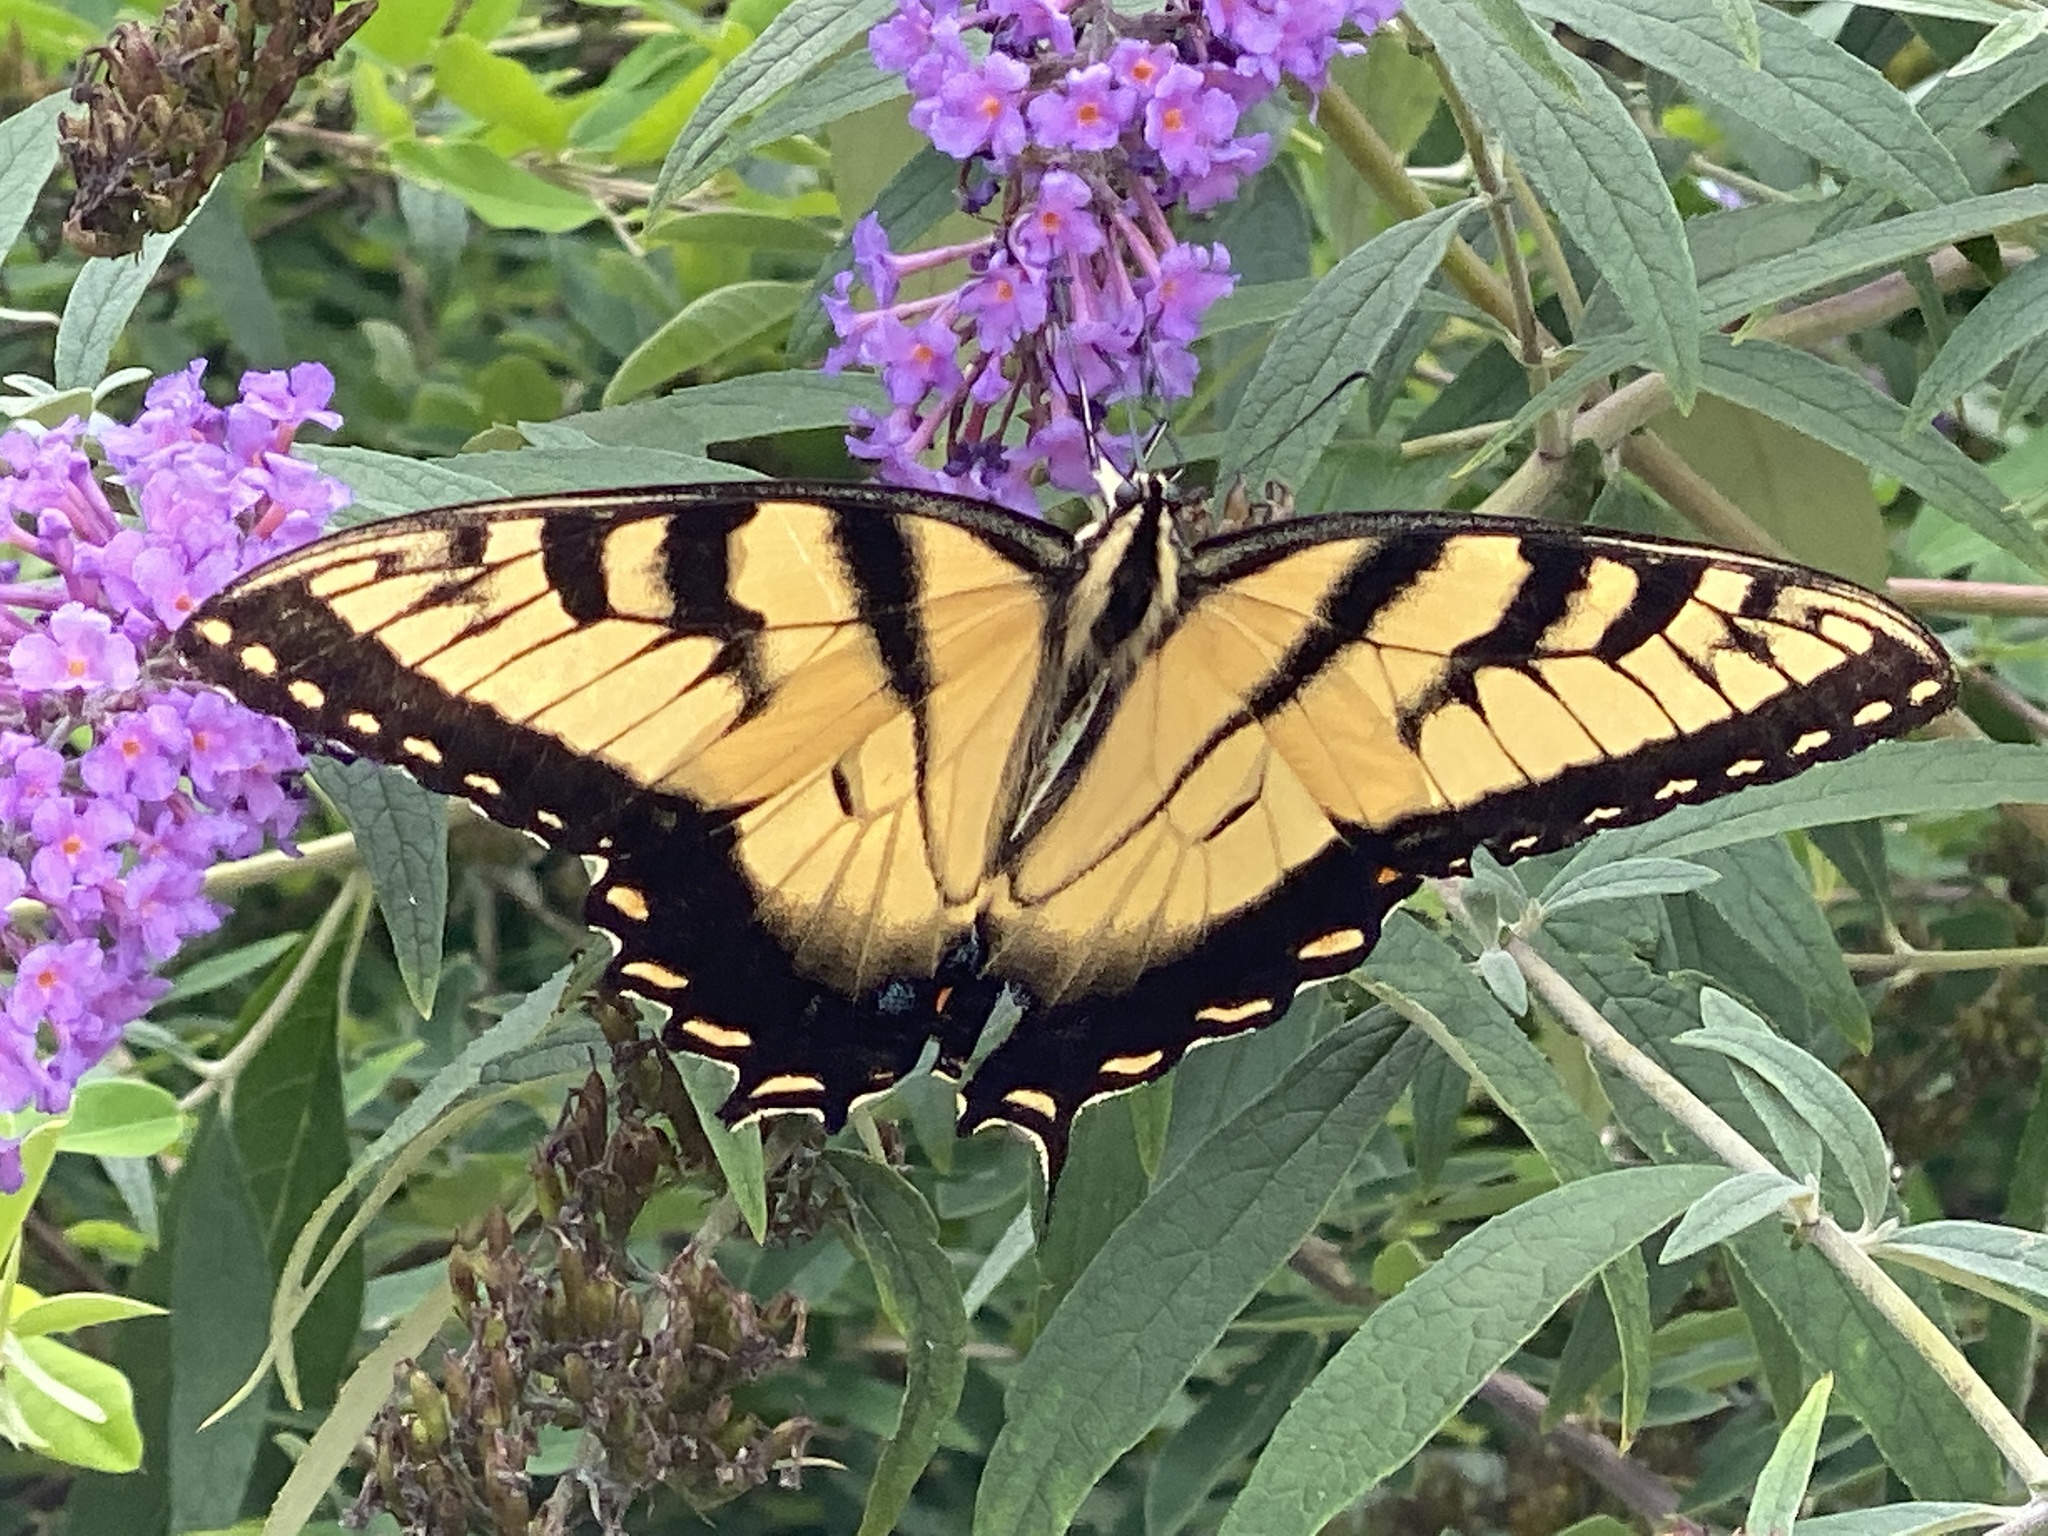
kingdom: Animalia
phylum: Arthropoda
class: Insecta
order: Lepidoptera
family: Papilionidae
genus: Papilio
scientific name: Papilio glaucus
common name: Tiger swallowtail
